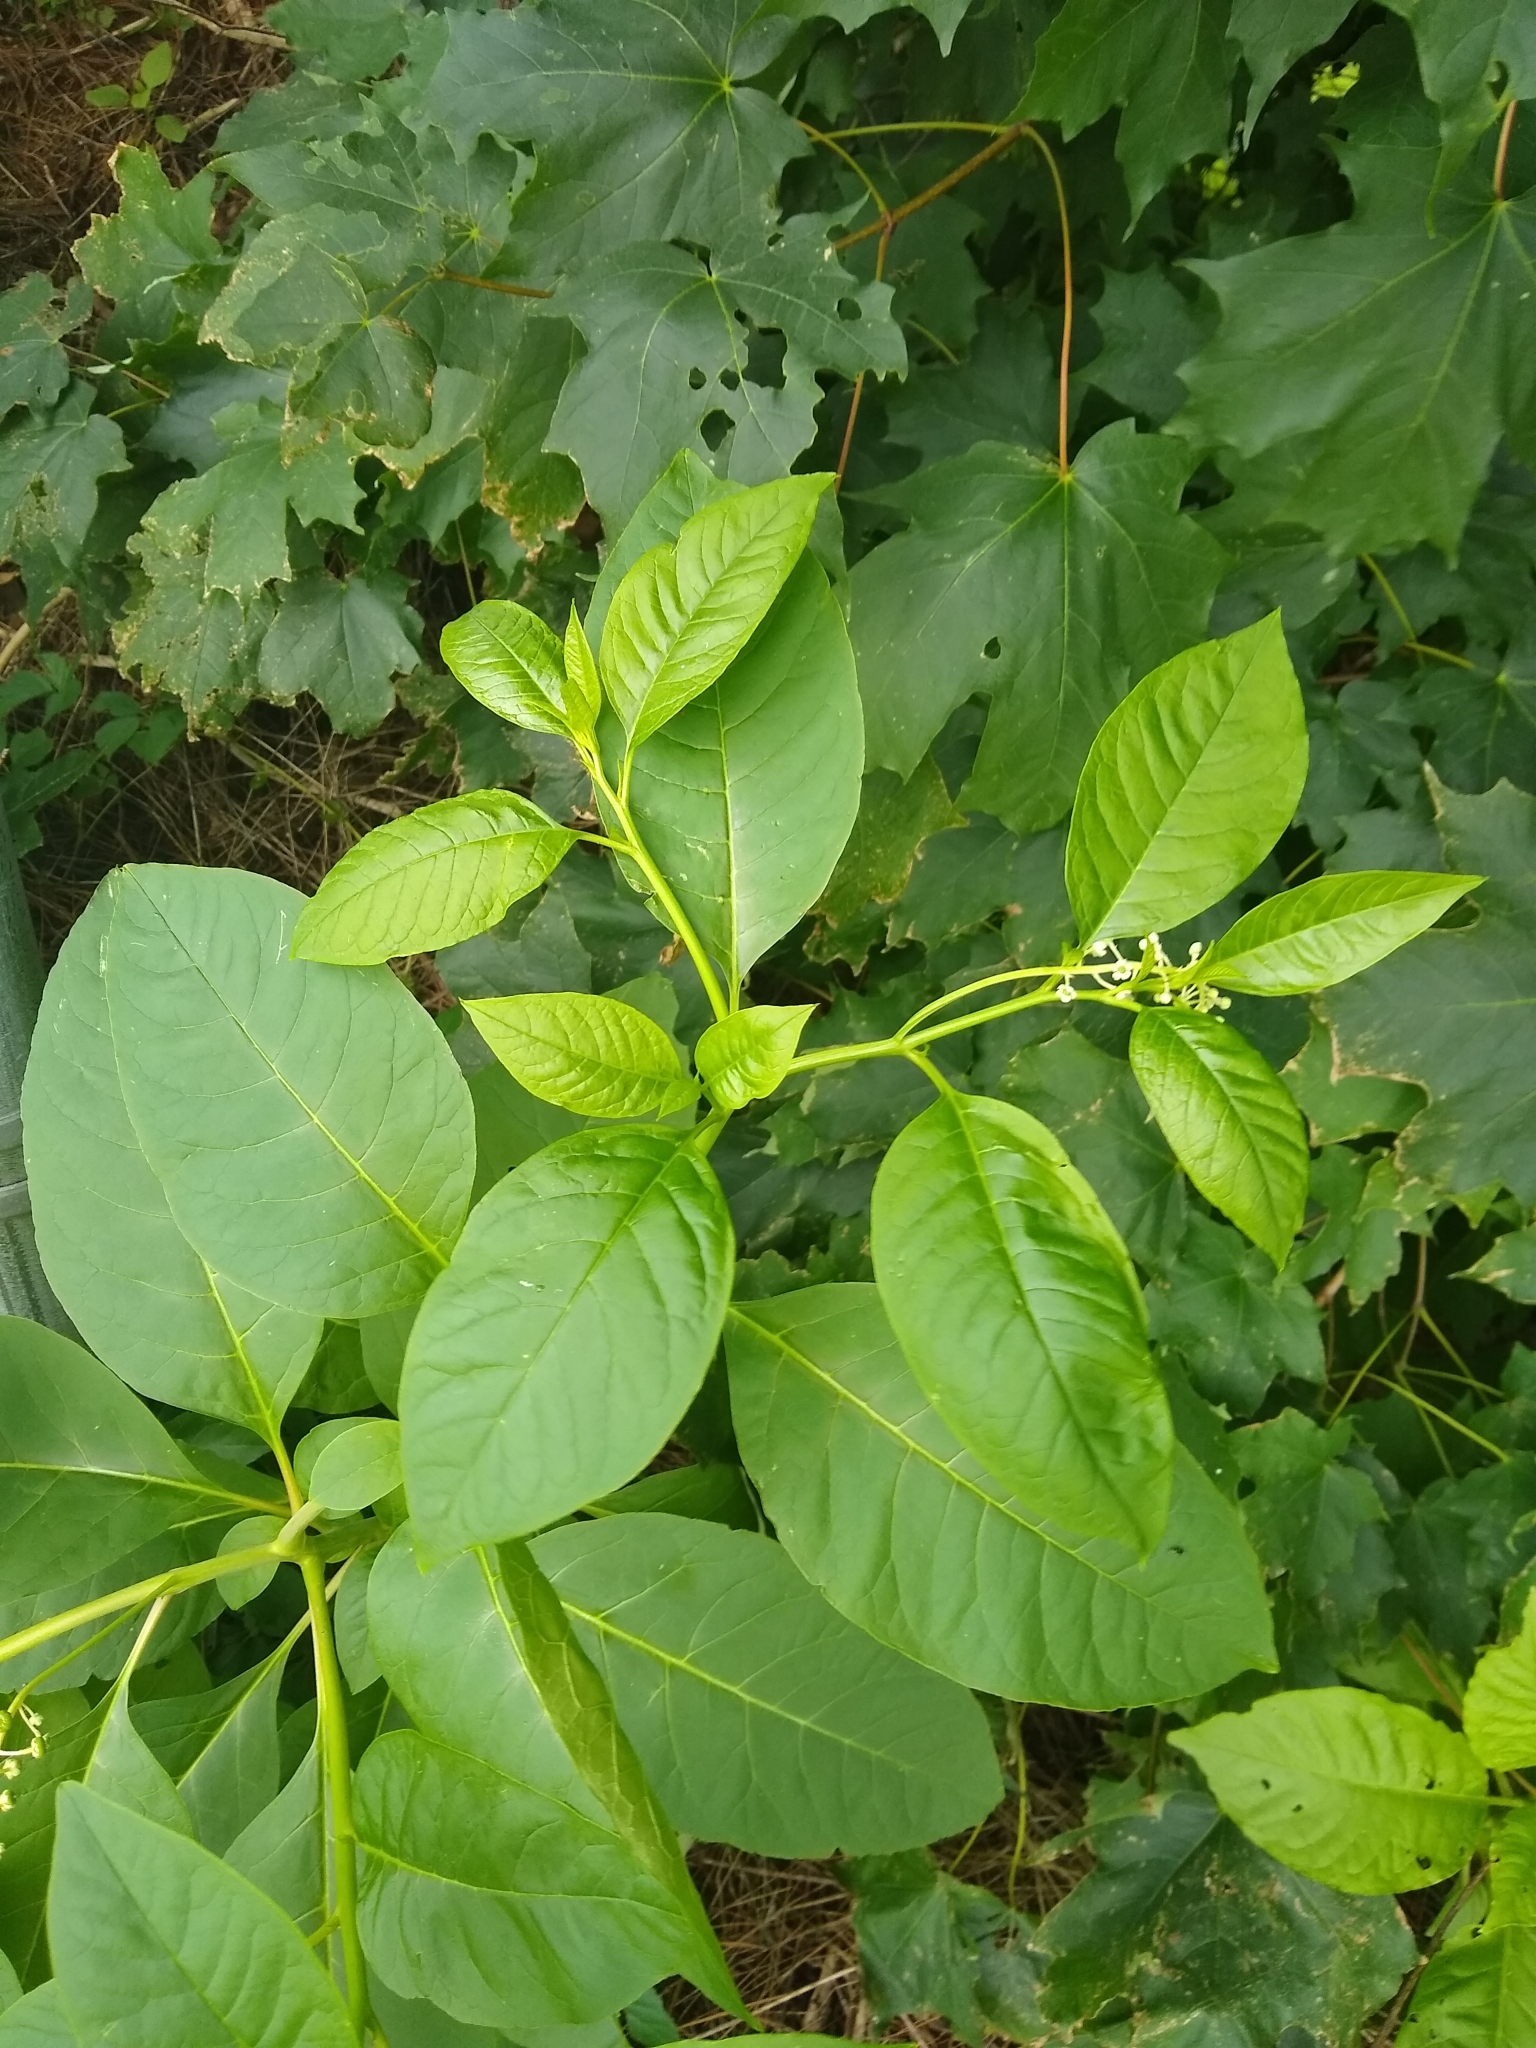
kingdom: Plantae
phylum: Tracheophyta
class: Magnoliopsida
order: Caryophyllales
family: Phytolaccaceae
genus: Phytolacca
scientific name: Phytolacca americana
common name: American pokeweed
